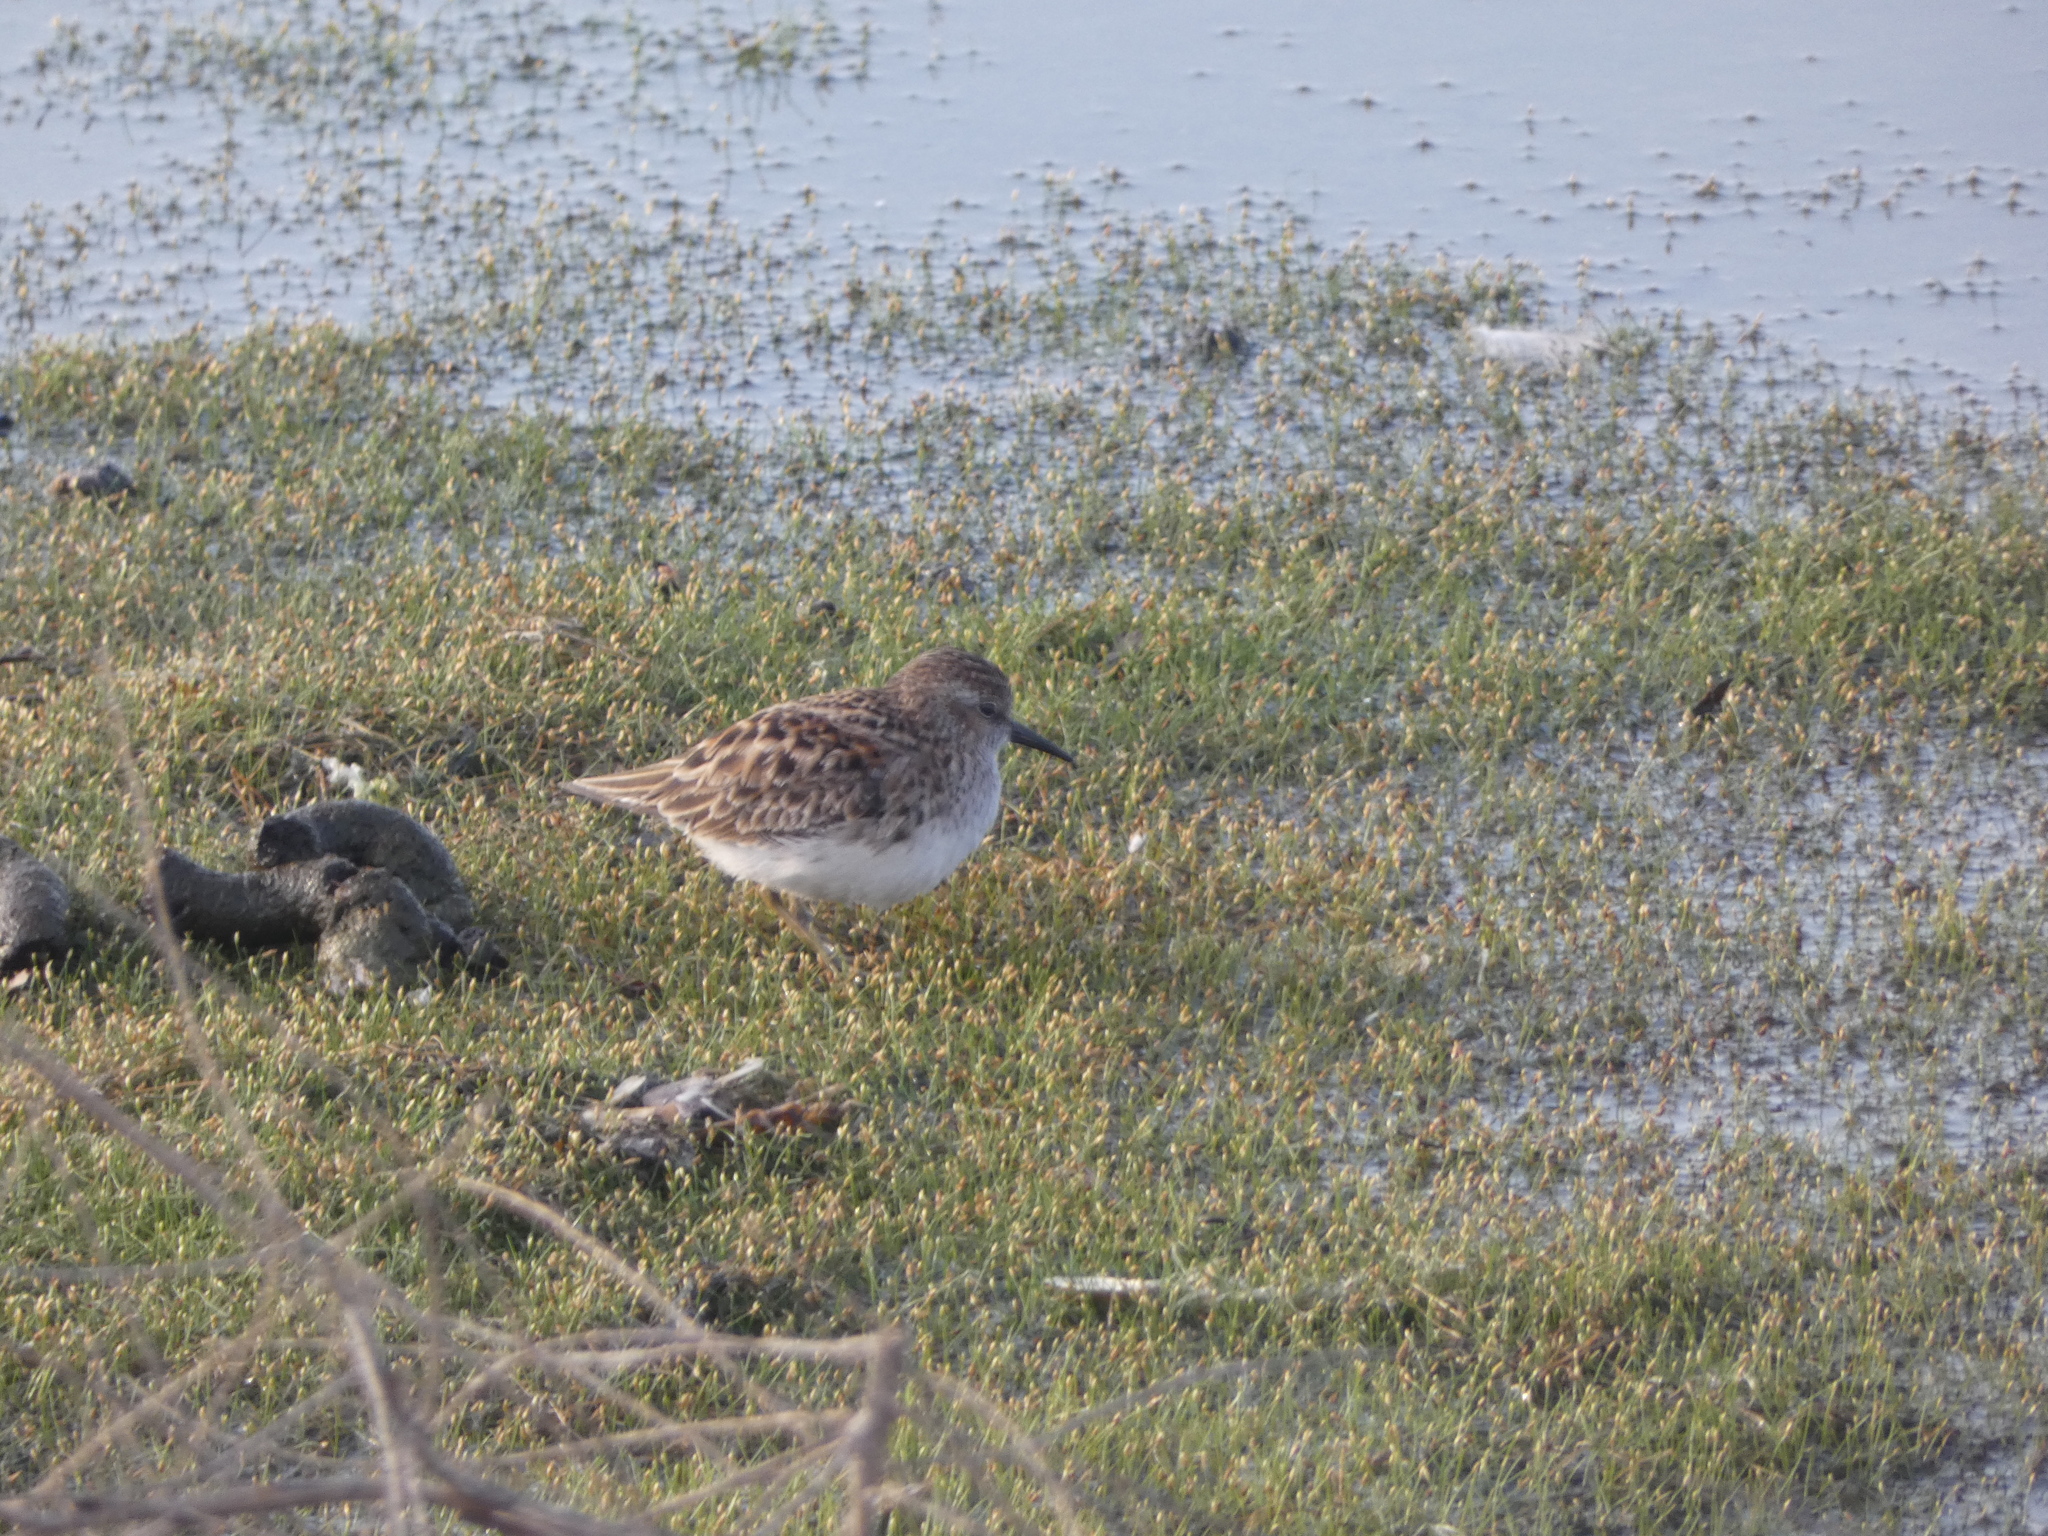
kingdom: Animalia
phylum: Chordata
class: Aves
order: Charadriiformes
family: Scolopacidae
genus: Calidris
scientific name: Calidris minutilla
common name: Least sandpiper
